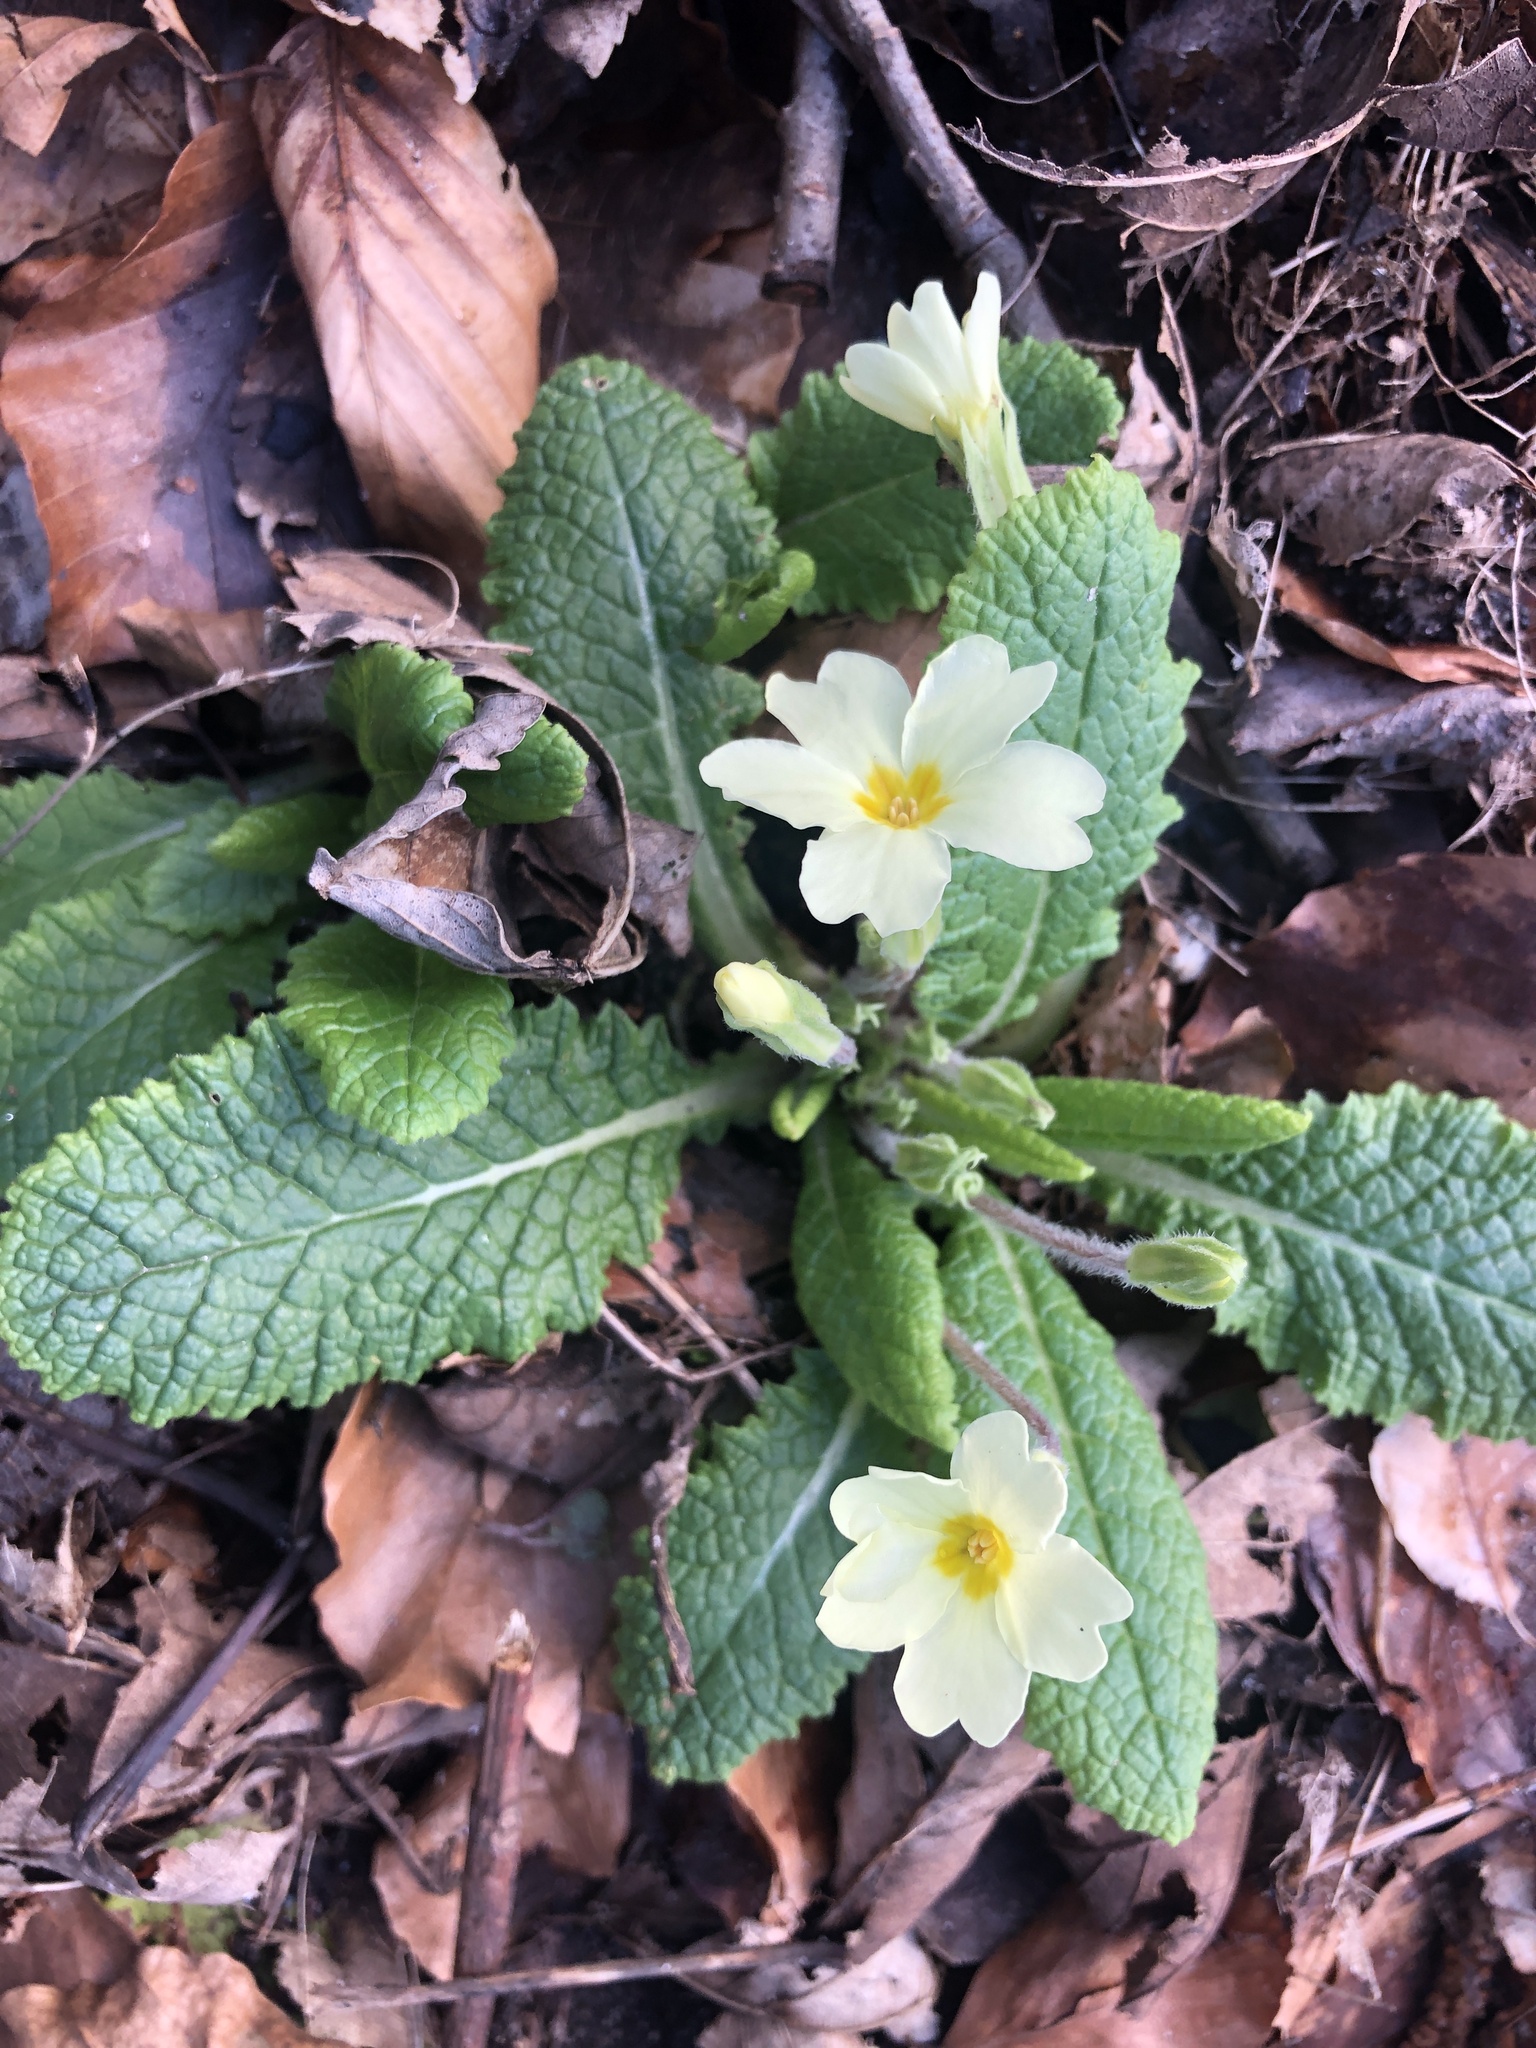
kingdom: Plantae
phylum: Tracheophyta
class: Magnoliopsida
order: Ericales
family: Primulaceae
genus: Primula
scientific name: Primula vulgaris
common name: Primrose
